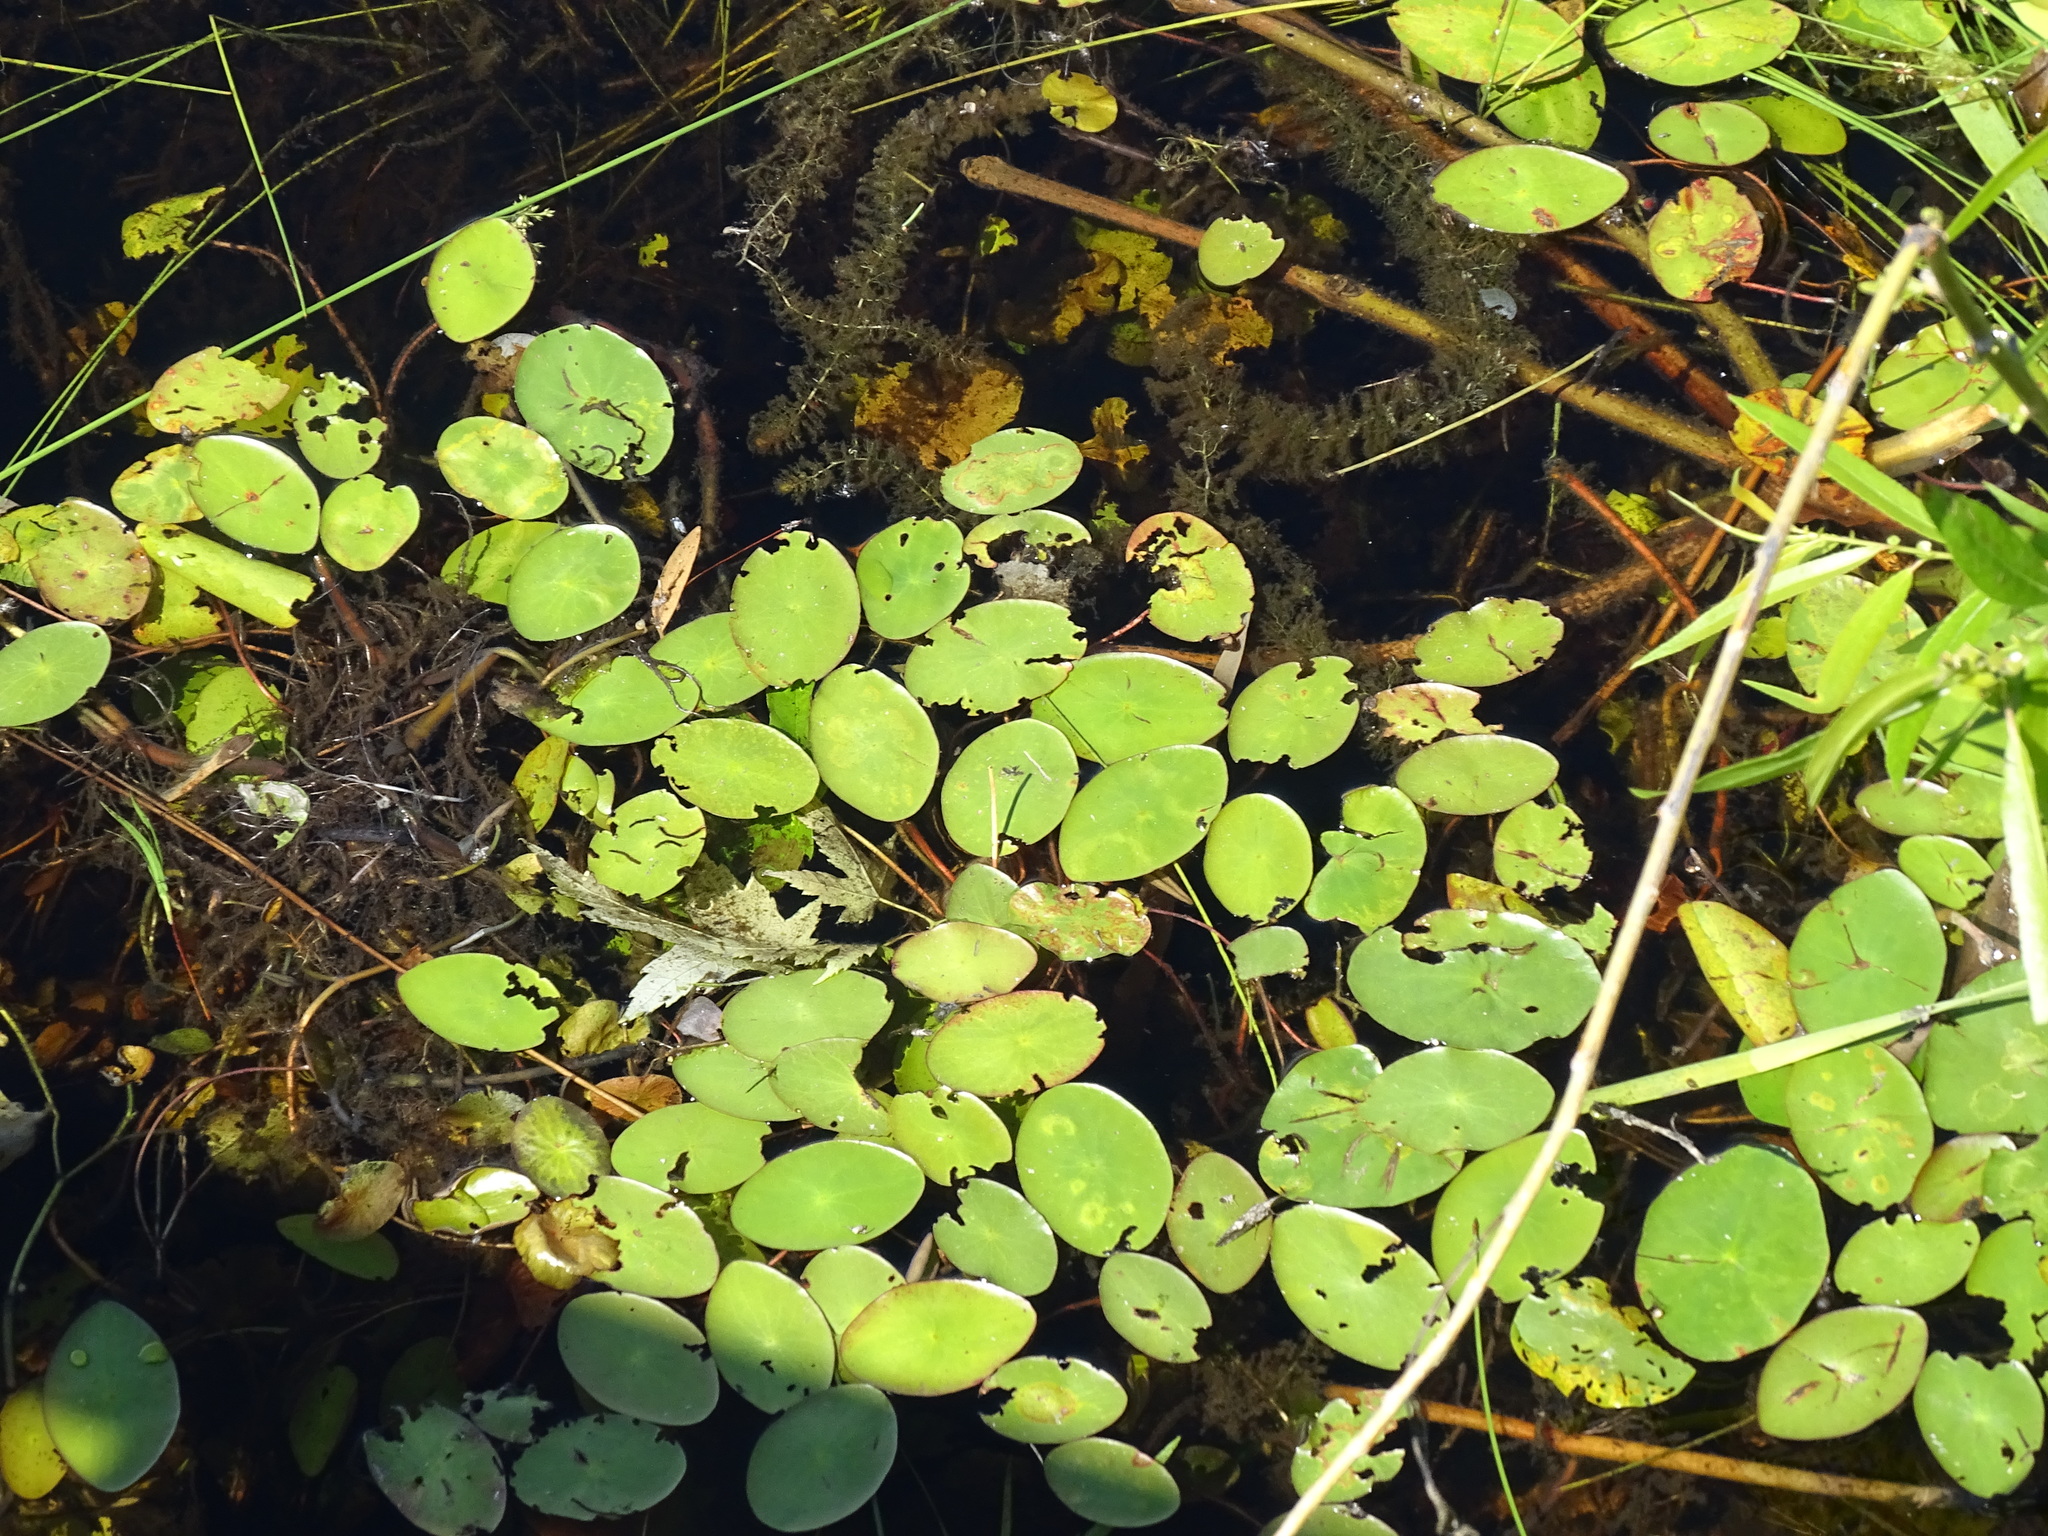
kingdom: Plantae
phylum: Tracheophyta
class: Magnoliopsida
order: Nymphaeales
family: Cabombaceae
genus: Brasenia
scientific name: Brasenia schreberi
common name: Water-shield
